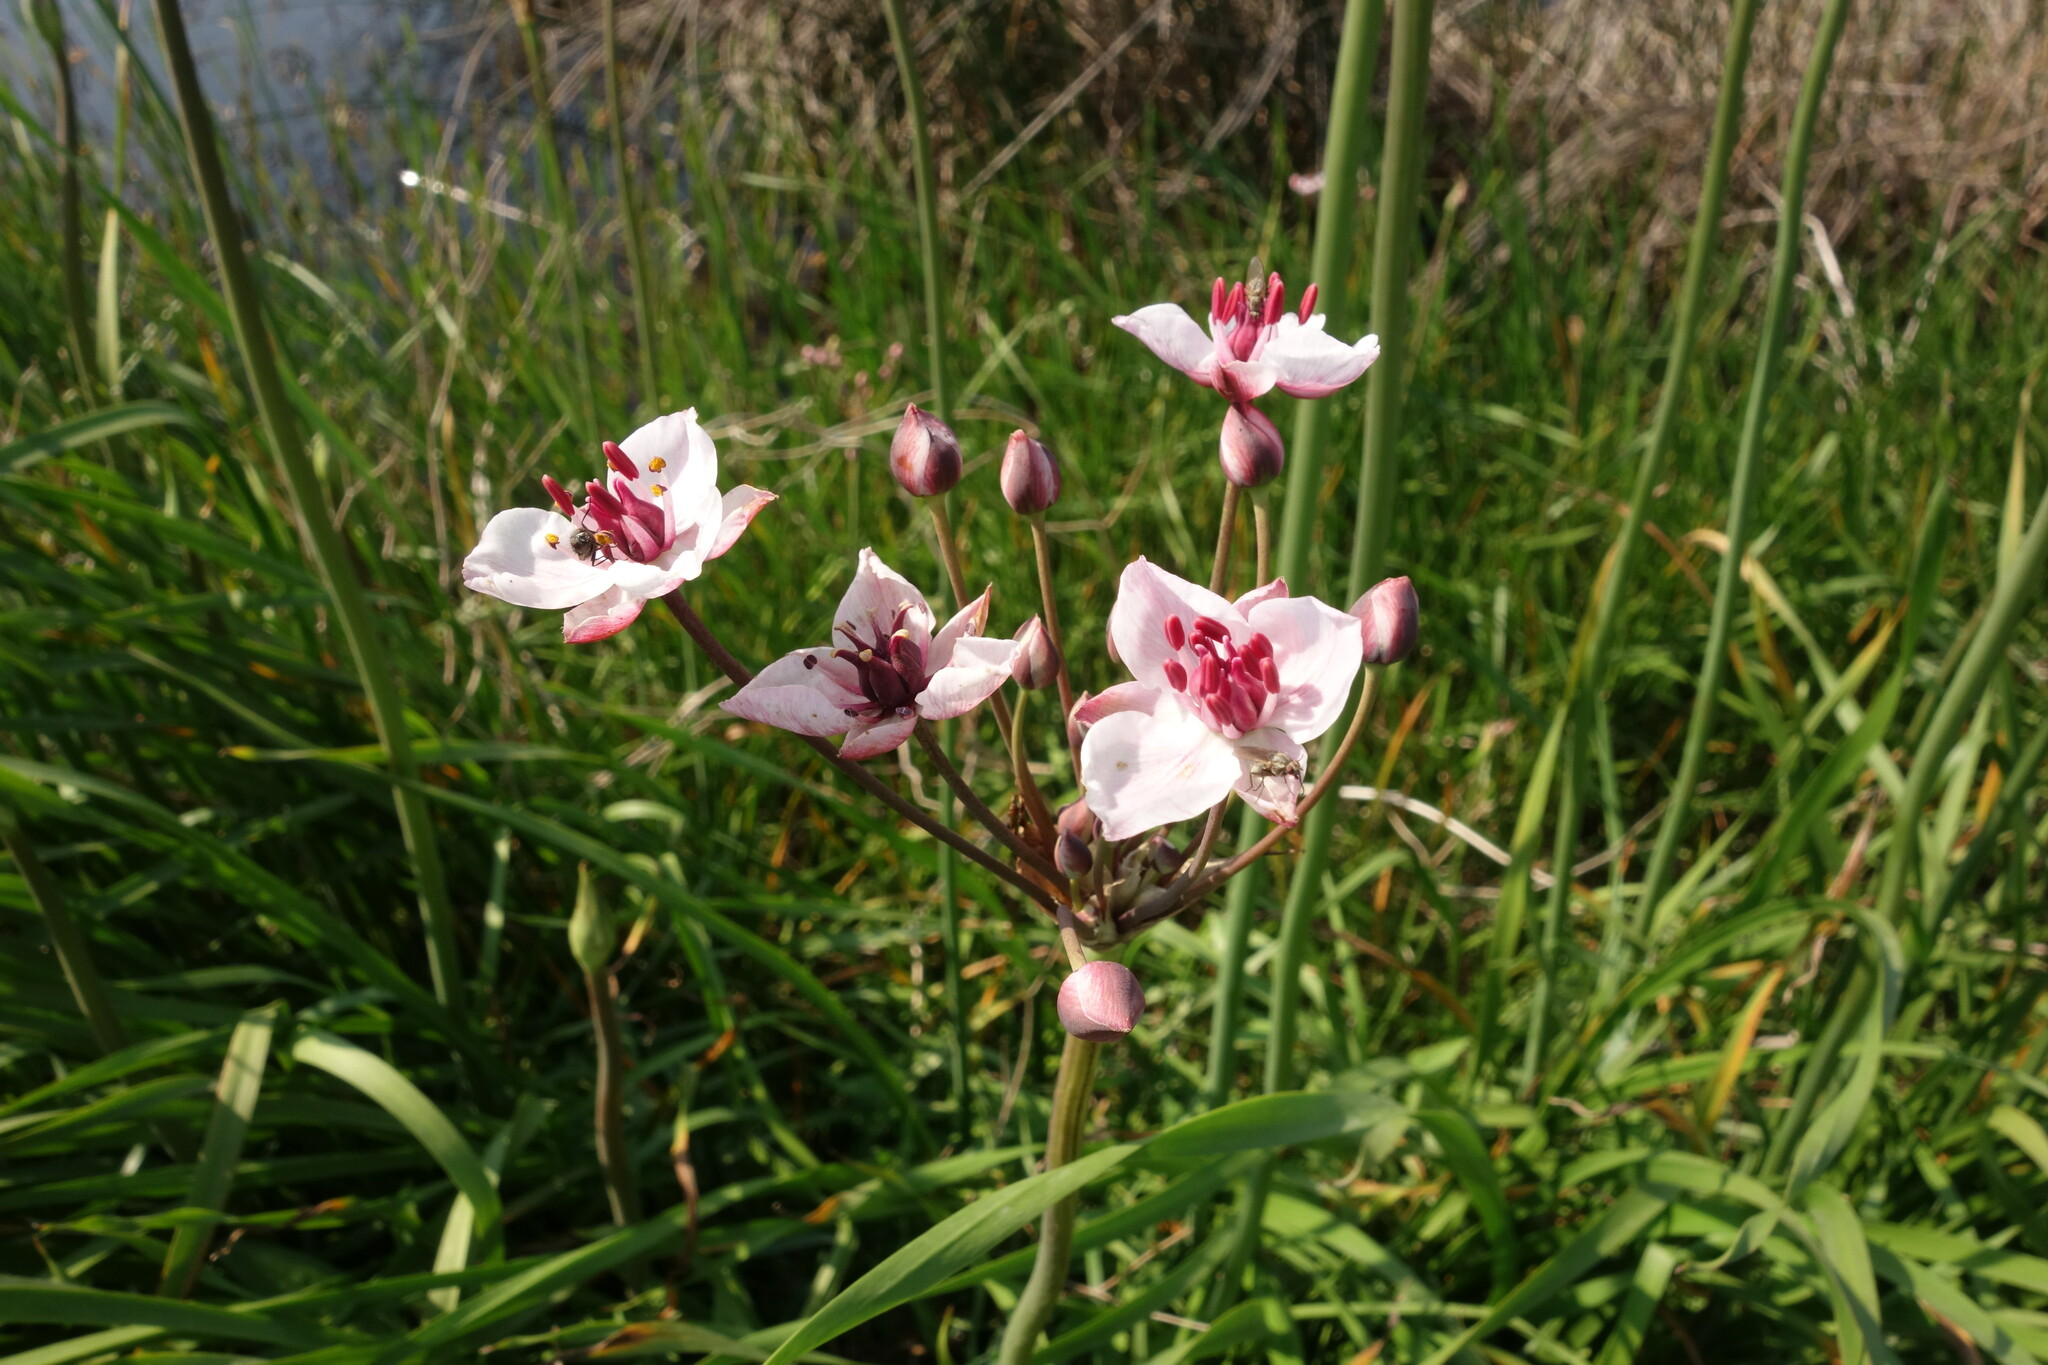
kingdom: Plantae
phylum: Tracheophyta
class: Liliopsida
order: Alismatales
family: Butomaceae
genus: Butomus
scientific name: Butomus umbellatus
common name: Flowering-rush
